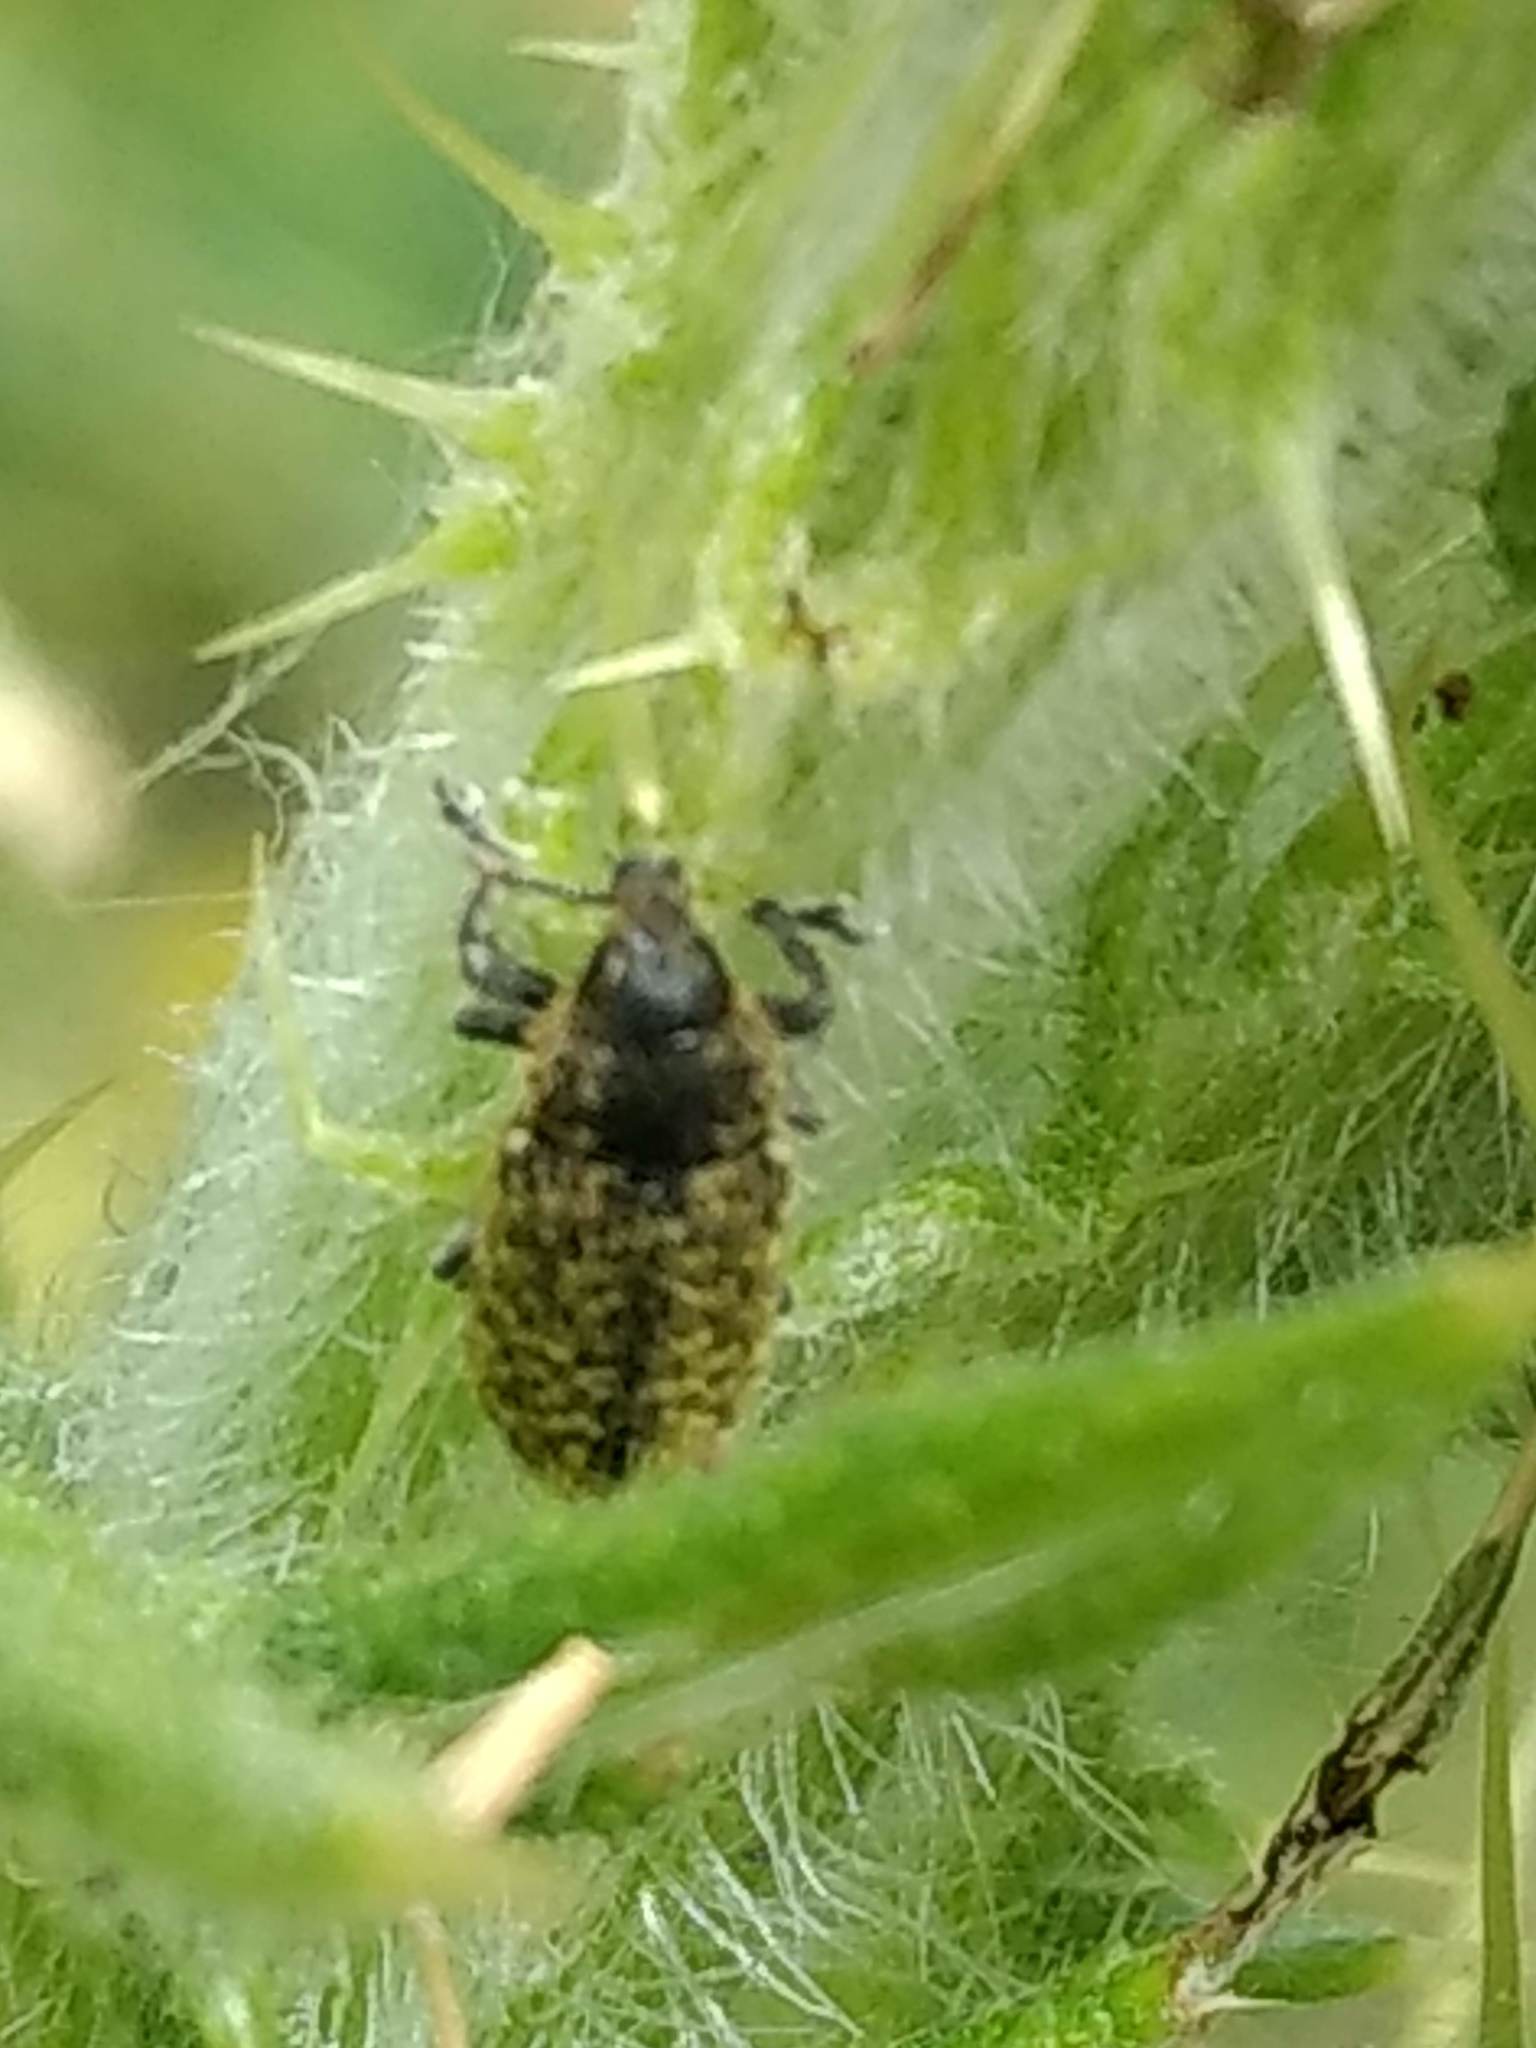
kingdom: Animalia
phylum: Arthropoda
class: Insecta
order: Coleoptera
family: Curculionidae
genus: Rhinocyllus
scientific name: Rhinocyllus conicus
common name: Weevil
